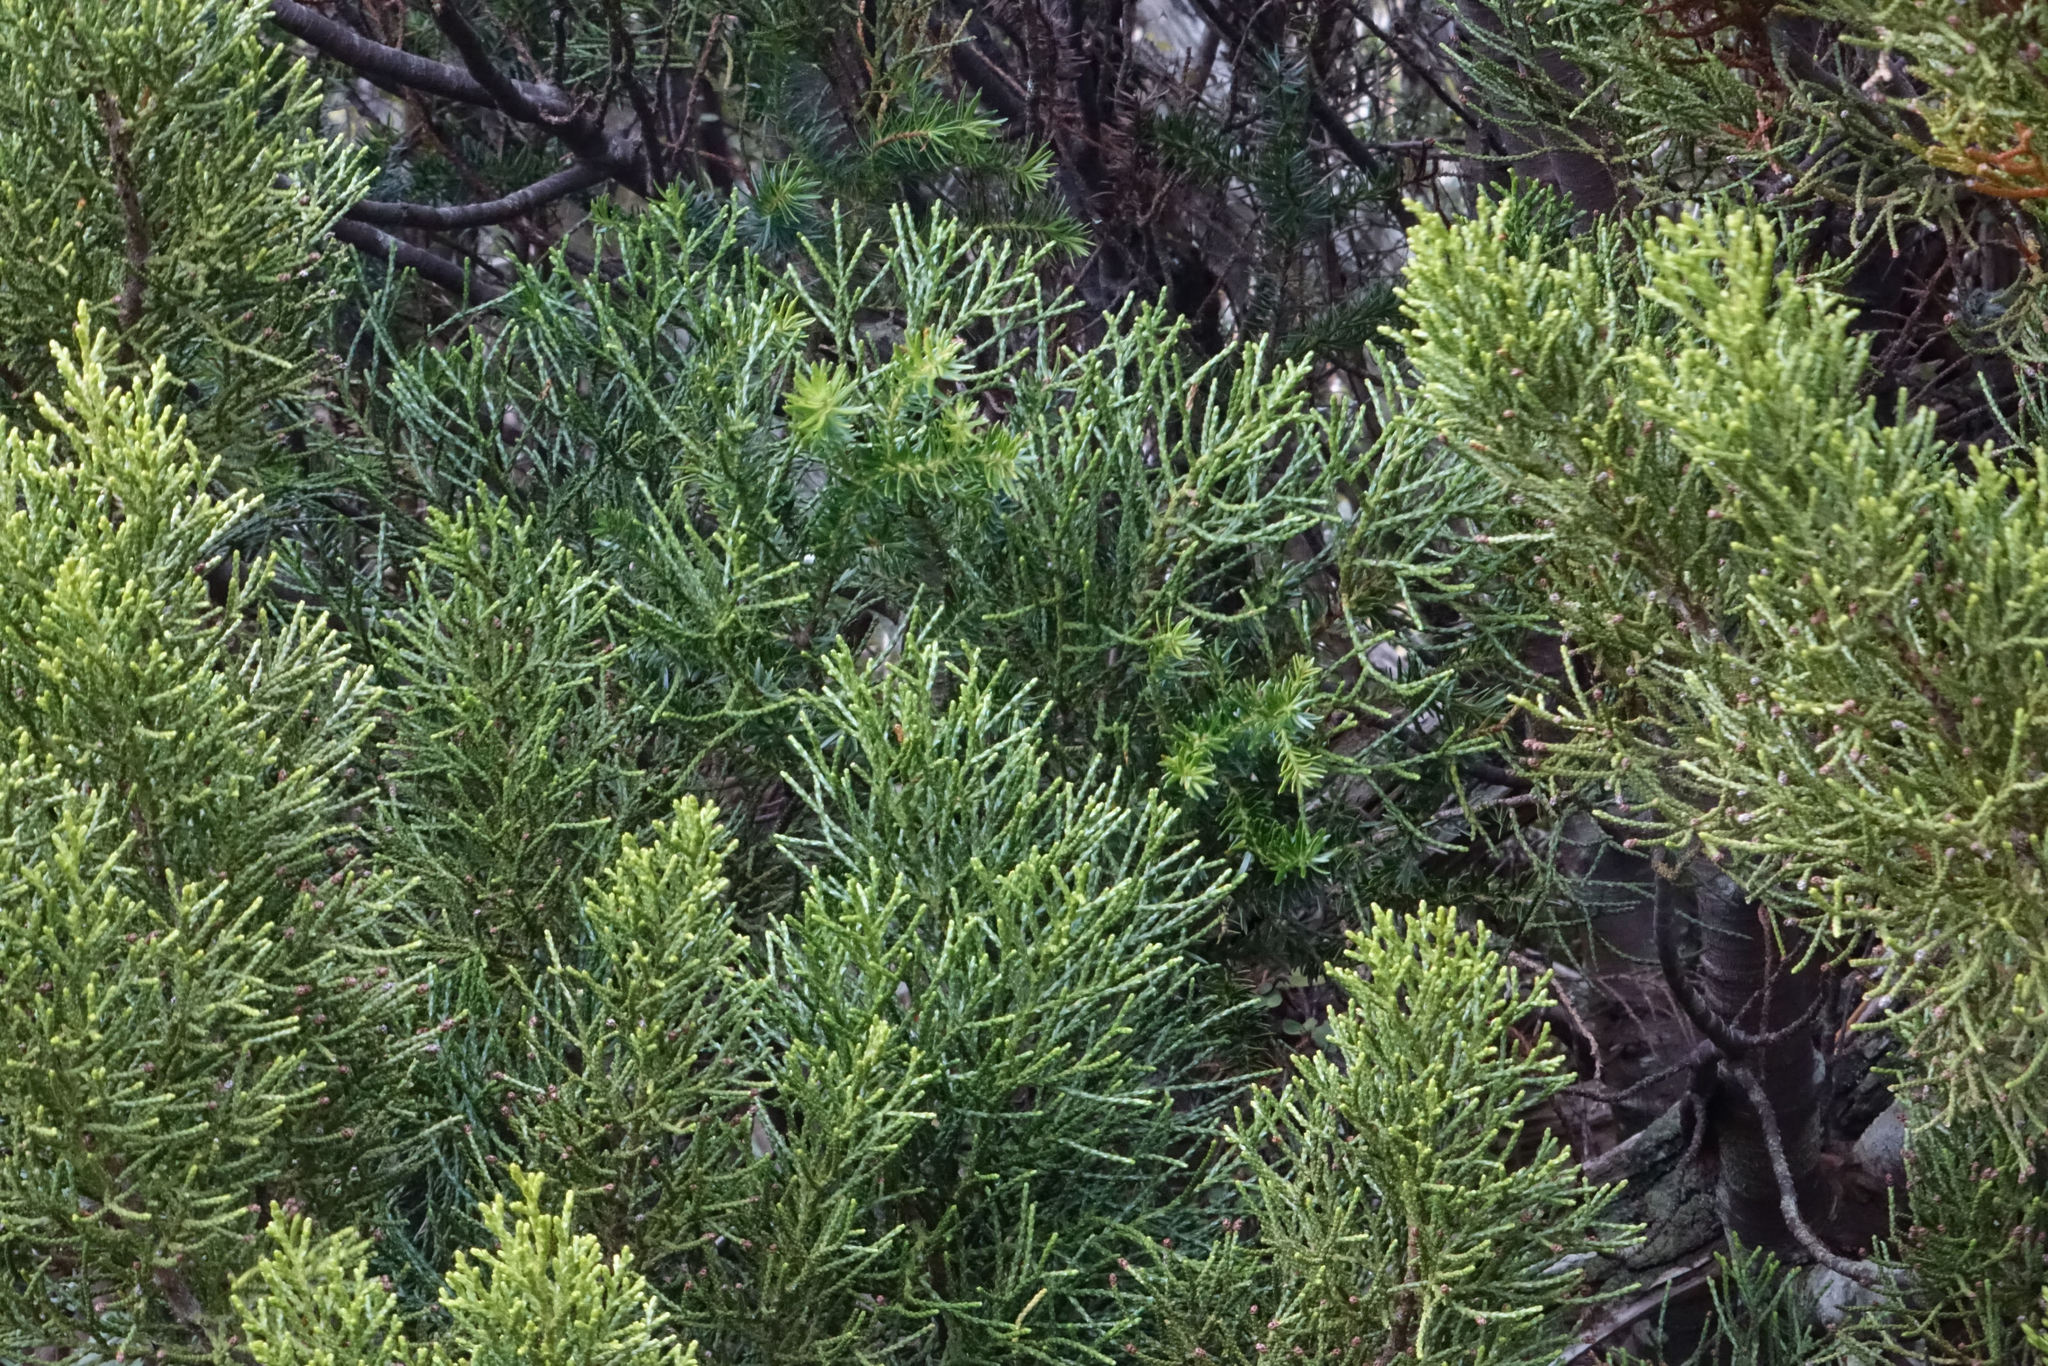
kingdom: Plantae
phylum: Tracheophyta
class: Pinopsida
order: Pinales
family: Podocarpaceae
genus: Halocarpus
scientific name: Halocarpus biformis
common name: Alpine tarwood
